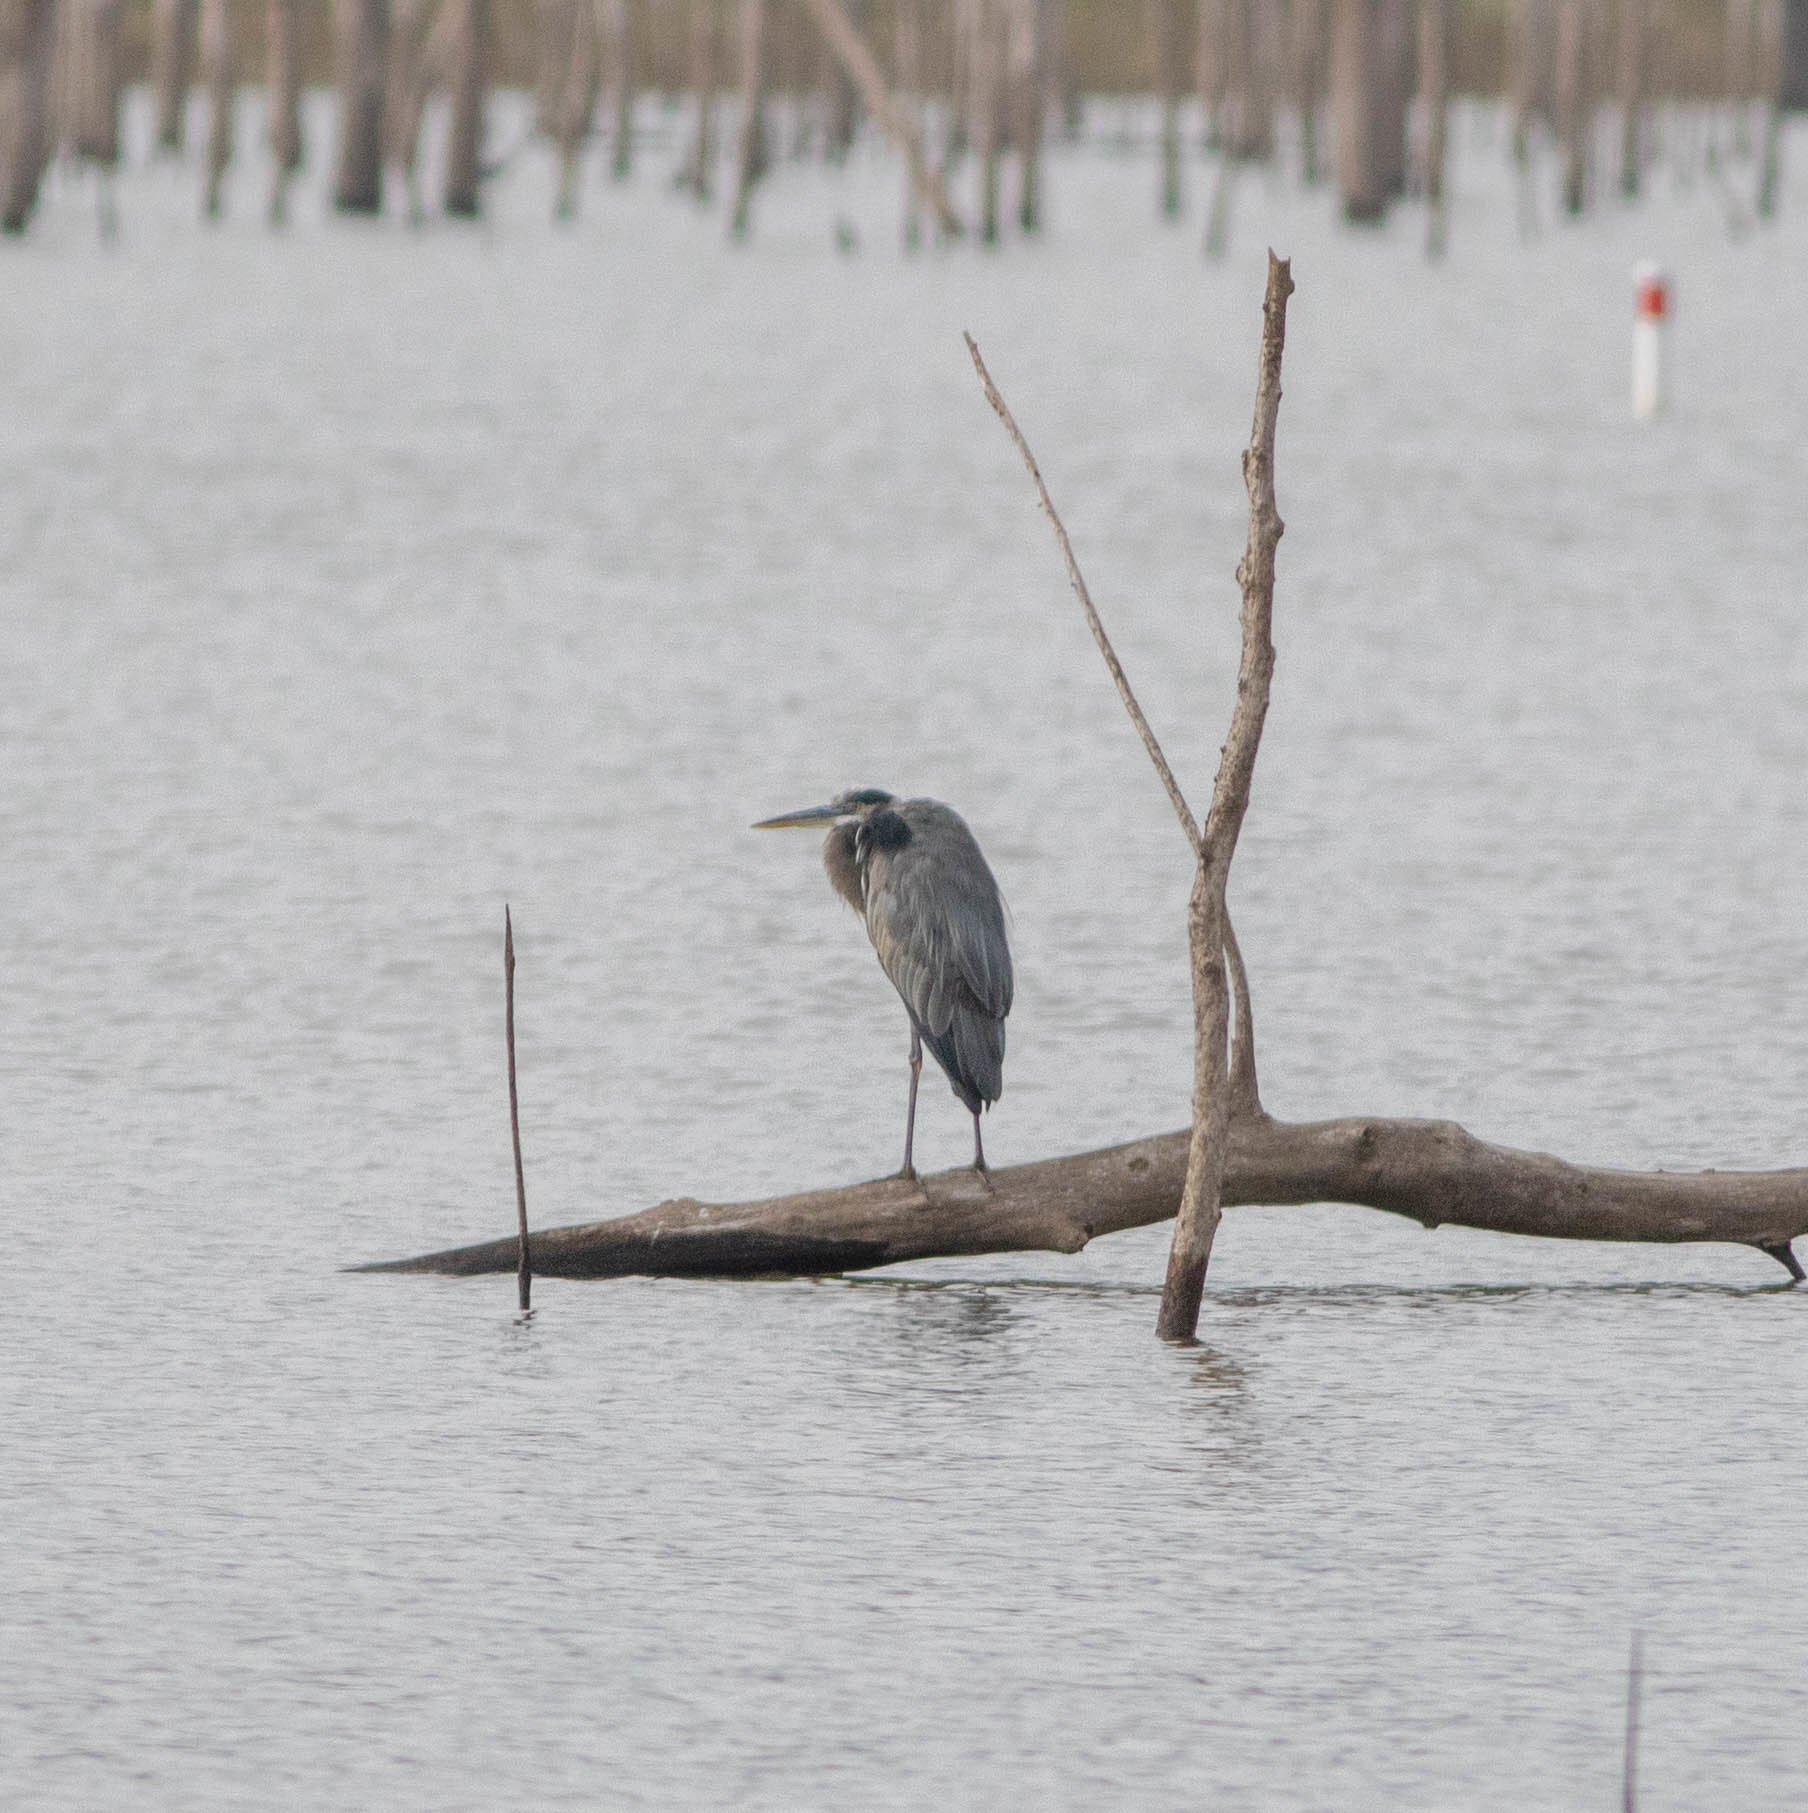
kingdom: Animalia
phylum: Chordata
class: Aves
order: Pelecaniformes
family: Ardeidae
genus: Ardea
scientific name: Ardea herodias
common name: Great blue heron
